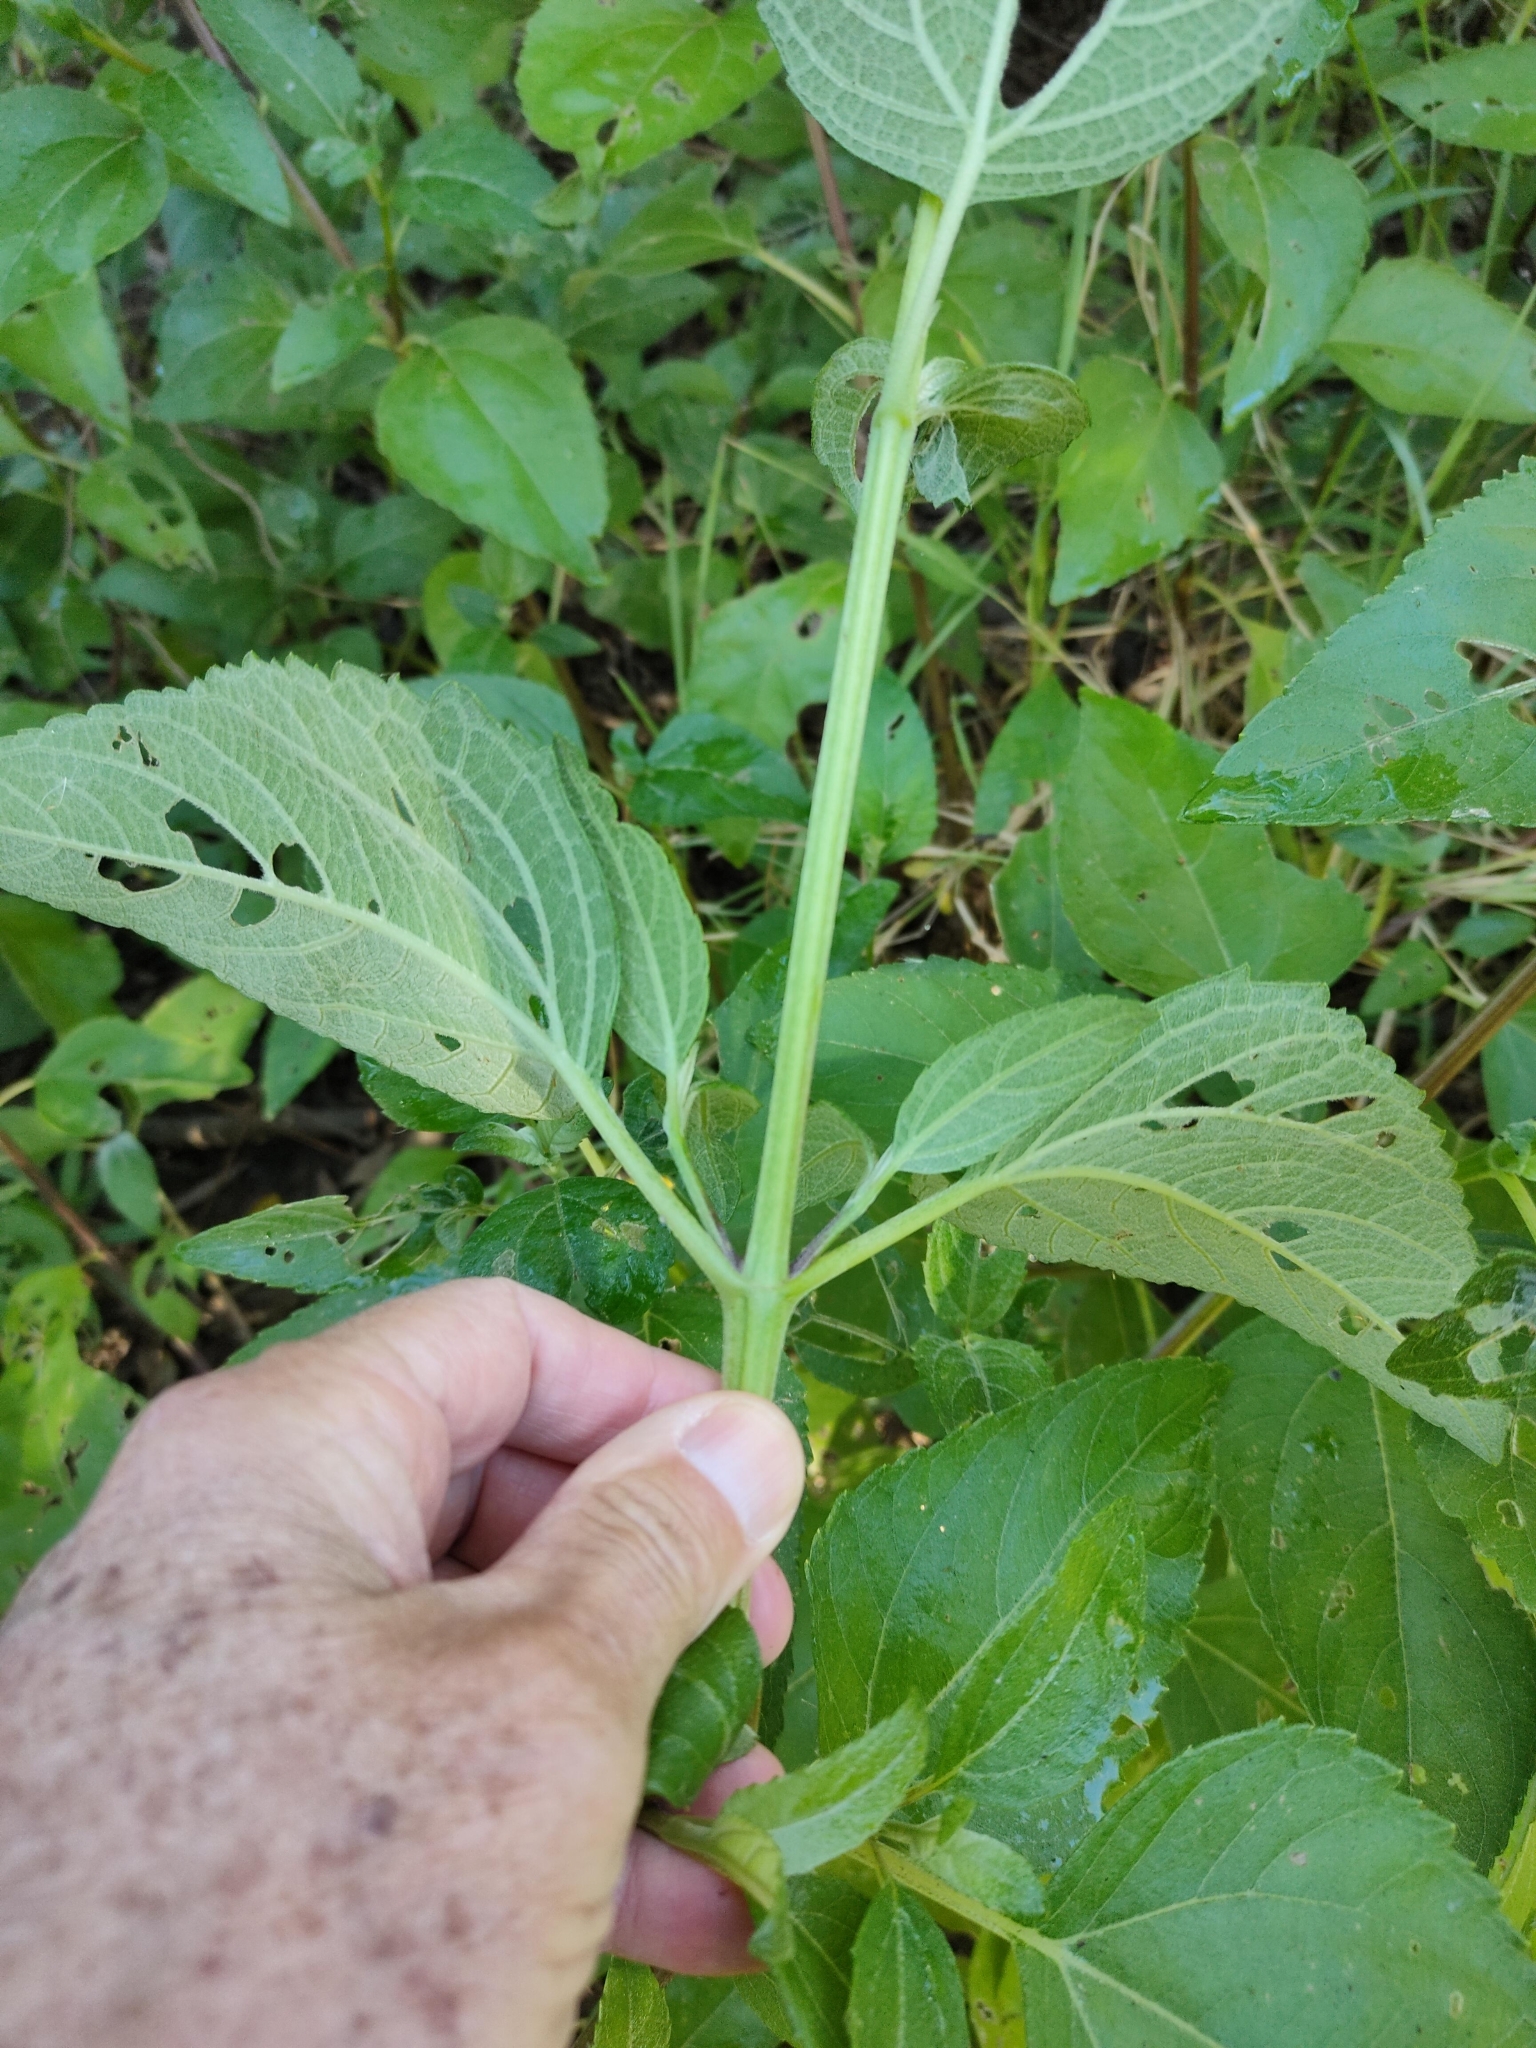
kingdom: Plantae
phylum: Tracheophyta
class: Magnoliopsida
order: Asterales
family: Asteraceae
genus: Wollastonia
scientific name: Wollastonia uniflora
